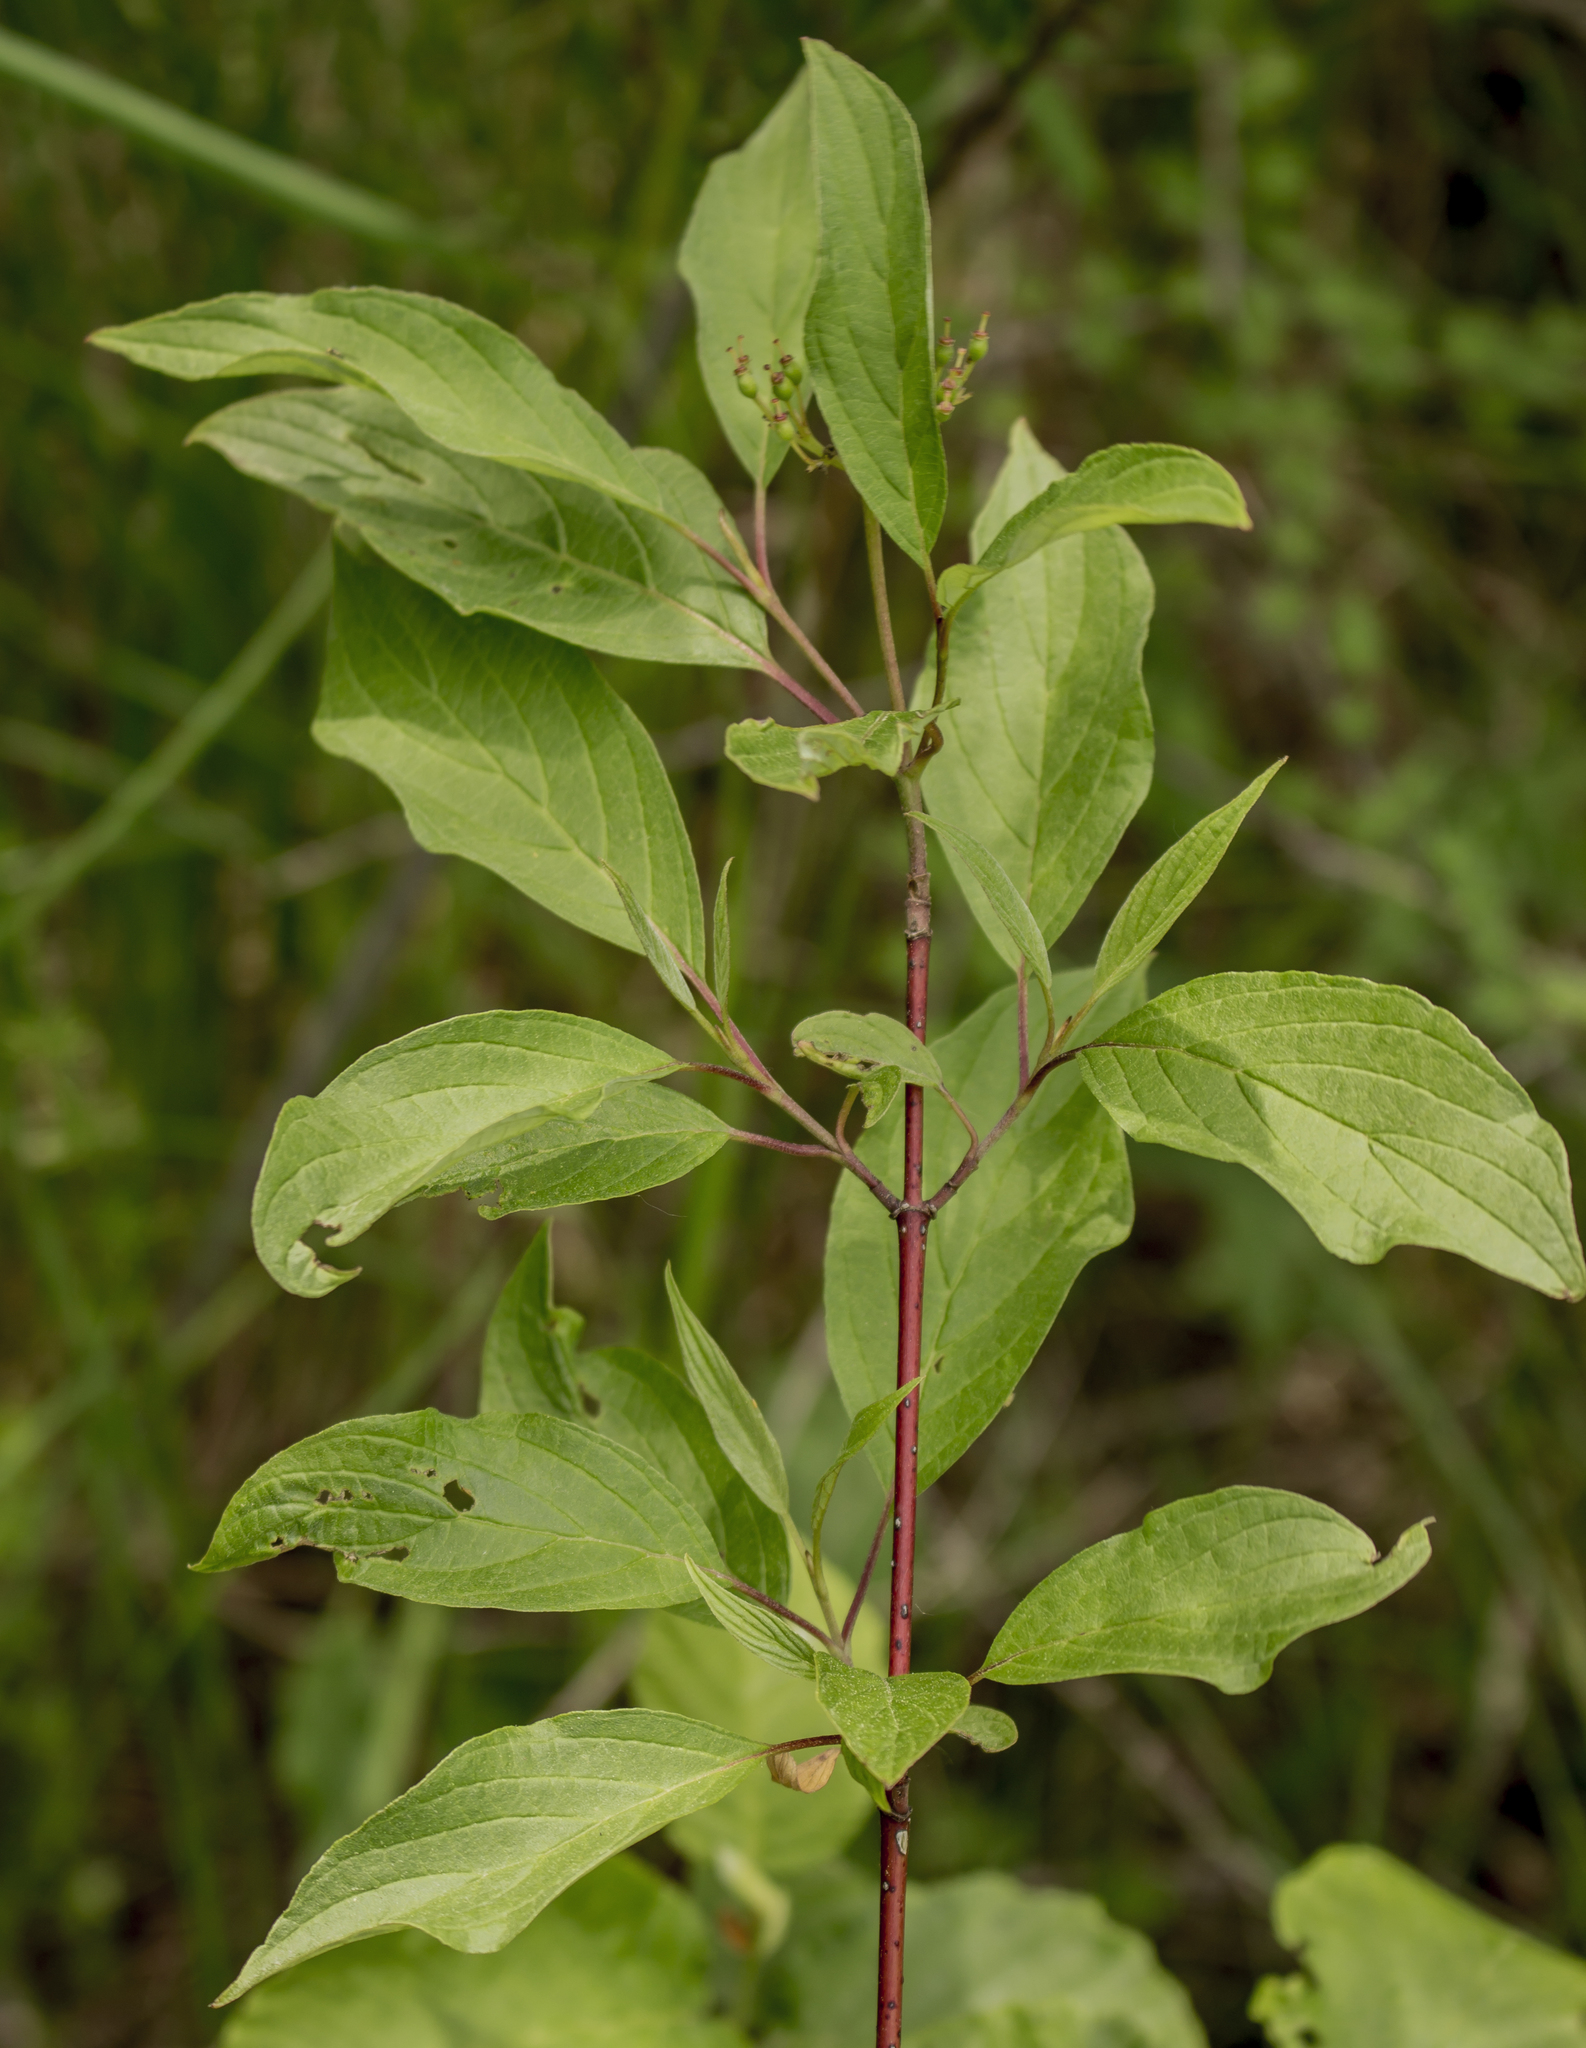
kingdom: Plantae
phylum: Tracheophyta
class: Magnoliopsida
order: Cornales
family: Cornaceae
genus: Cornus
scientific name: Cornus sericea
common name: Red-osier dogwood
